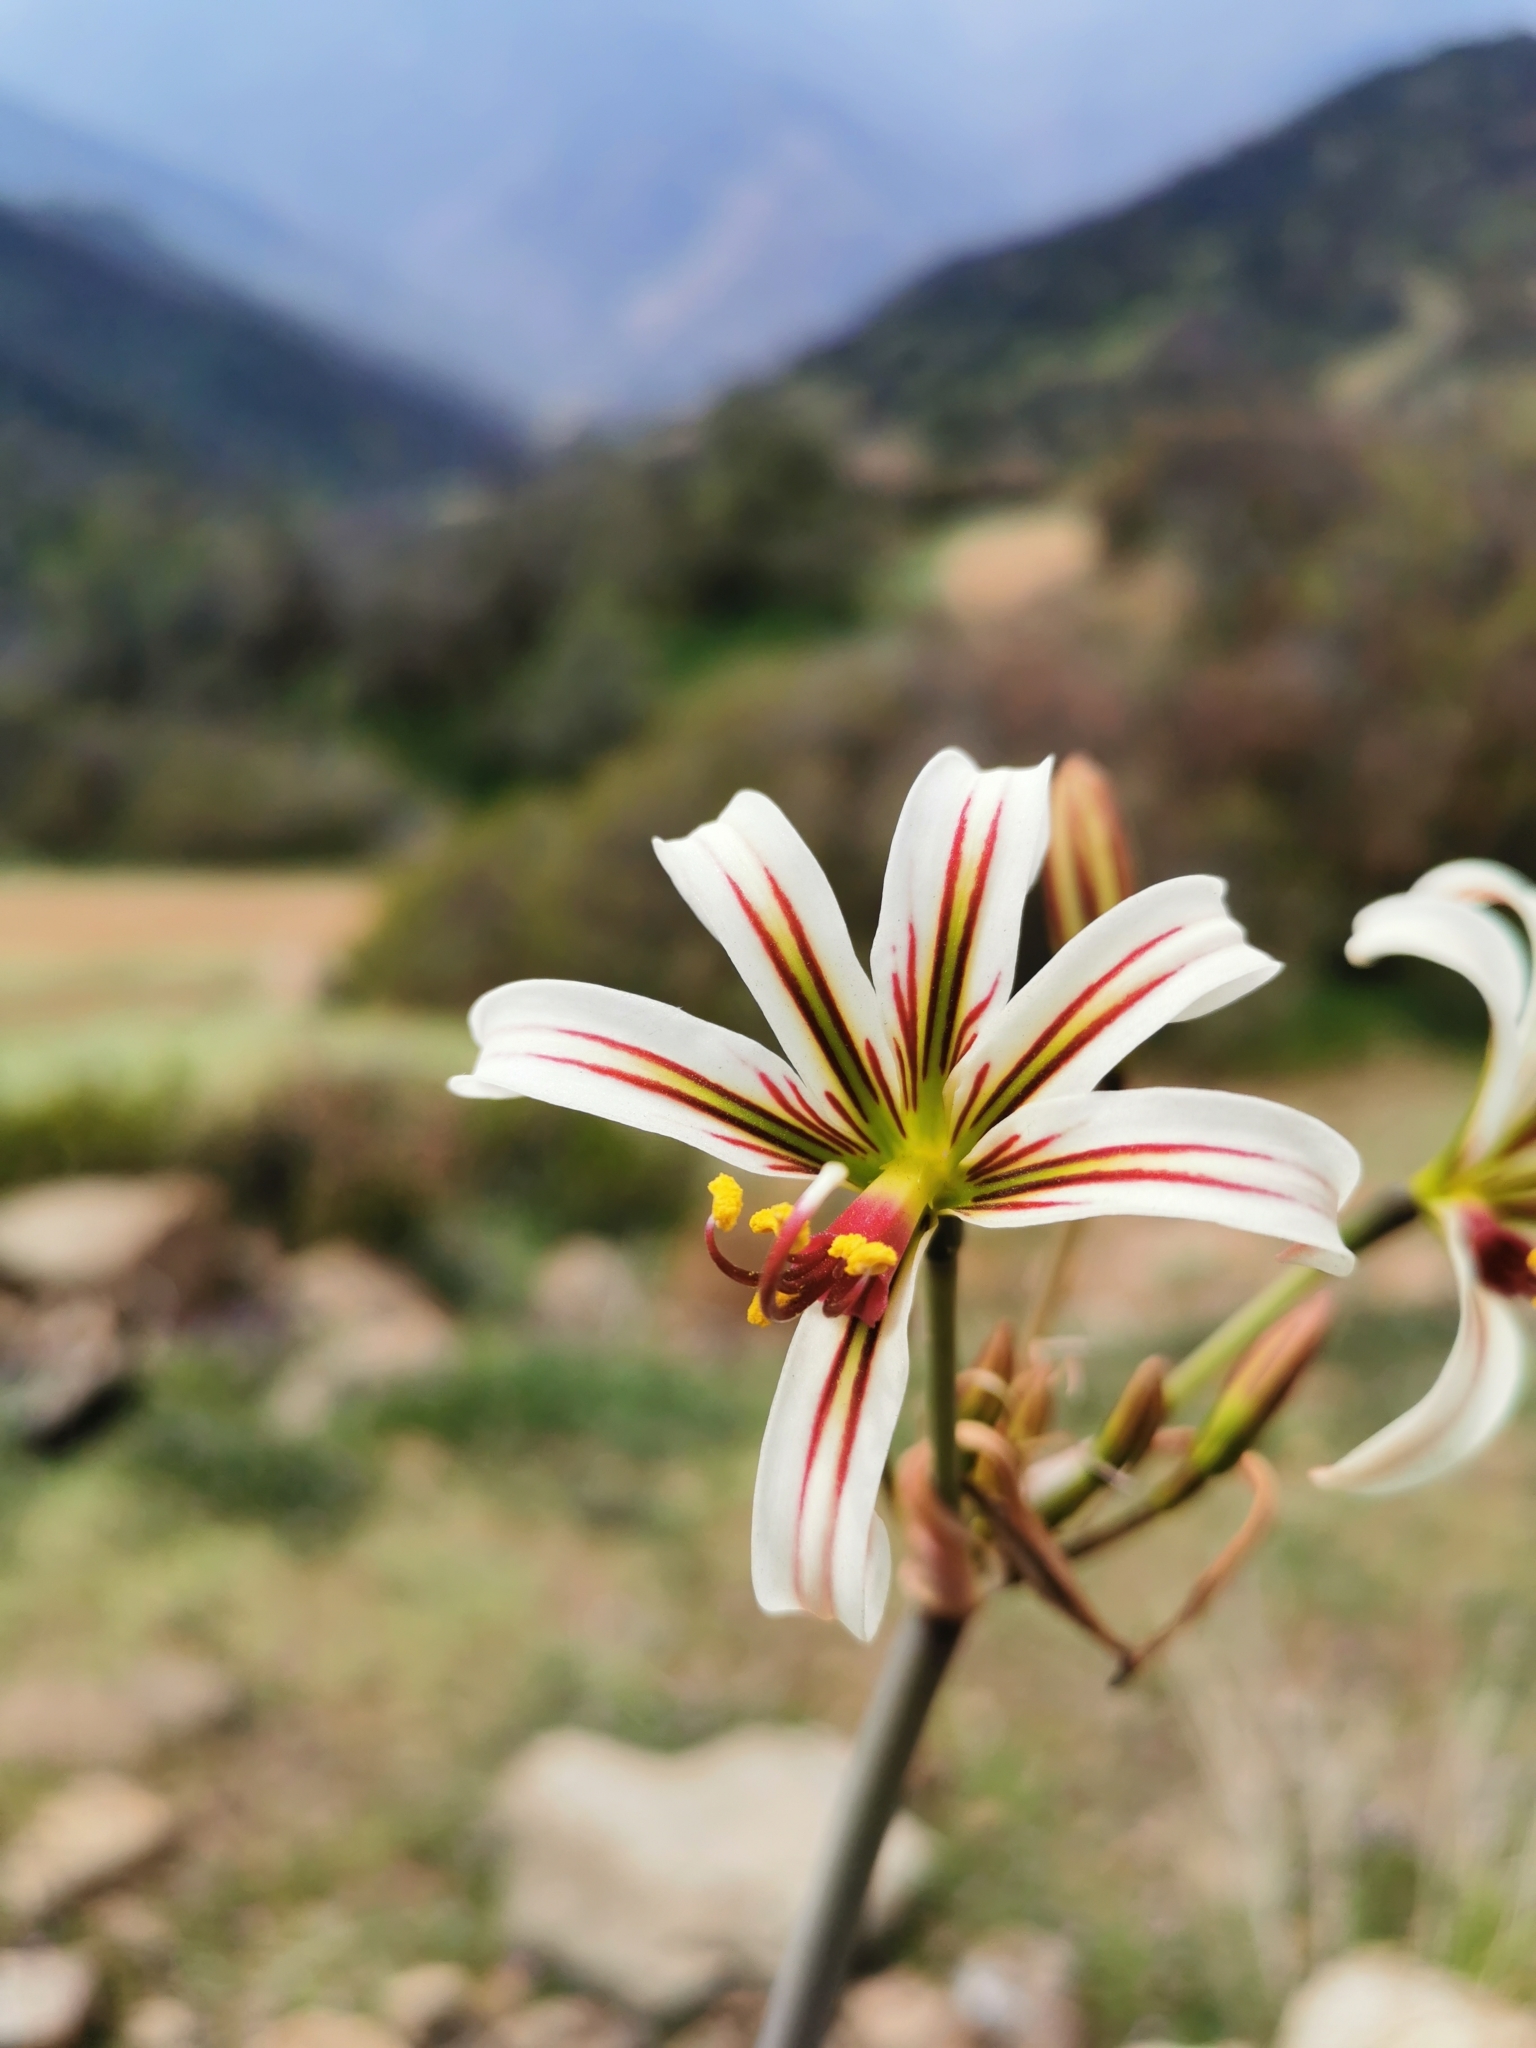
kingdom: Plantae
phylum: Tracheophyta
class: Liliopsida
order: Asparagales
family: Amaryllidaceae
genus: Phycella
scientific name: Phycella arzae
